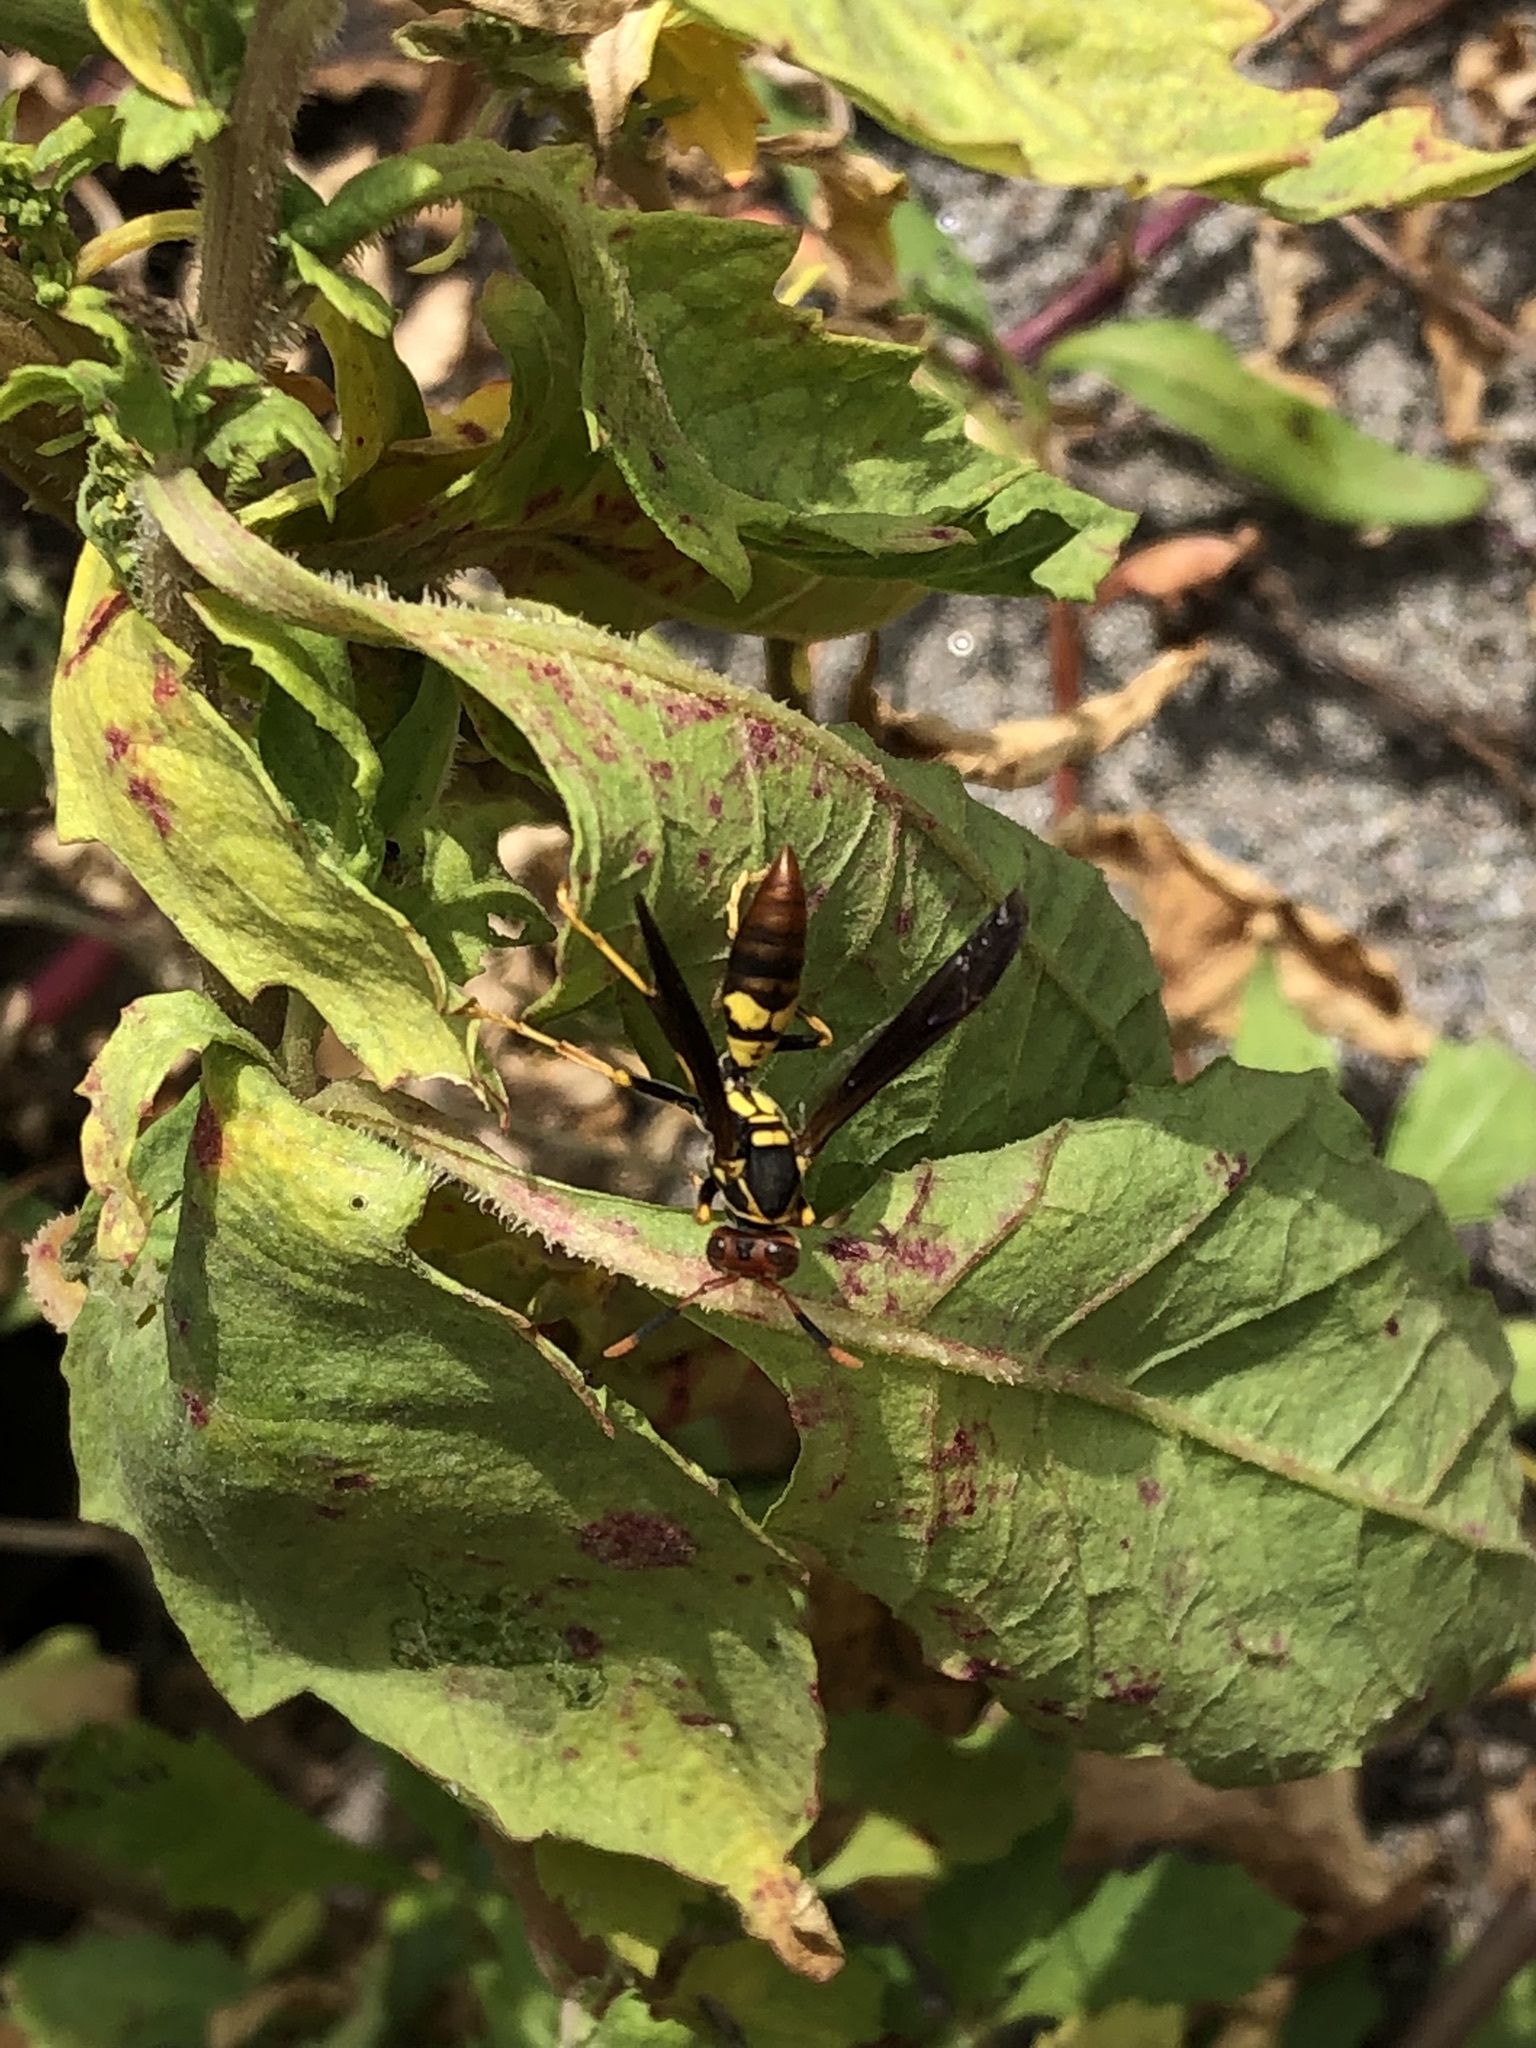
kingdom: Animalia
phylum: Arthropoda
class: Insecta
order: Hymenoptera
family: Eumenidae
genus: Polistes
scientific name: Polistes peruvianus
